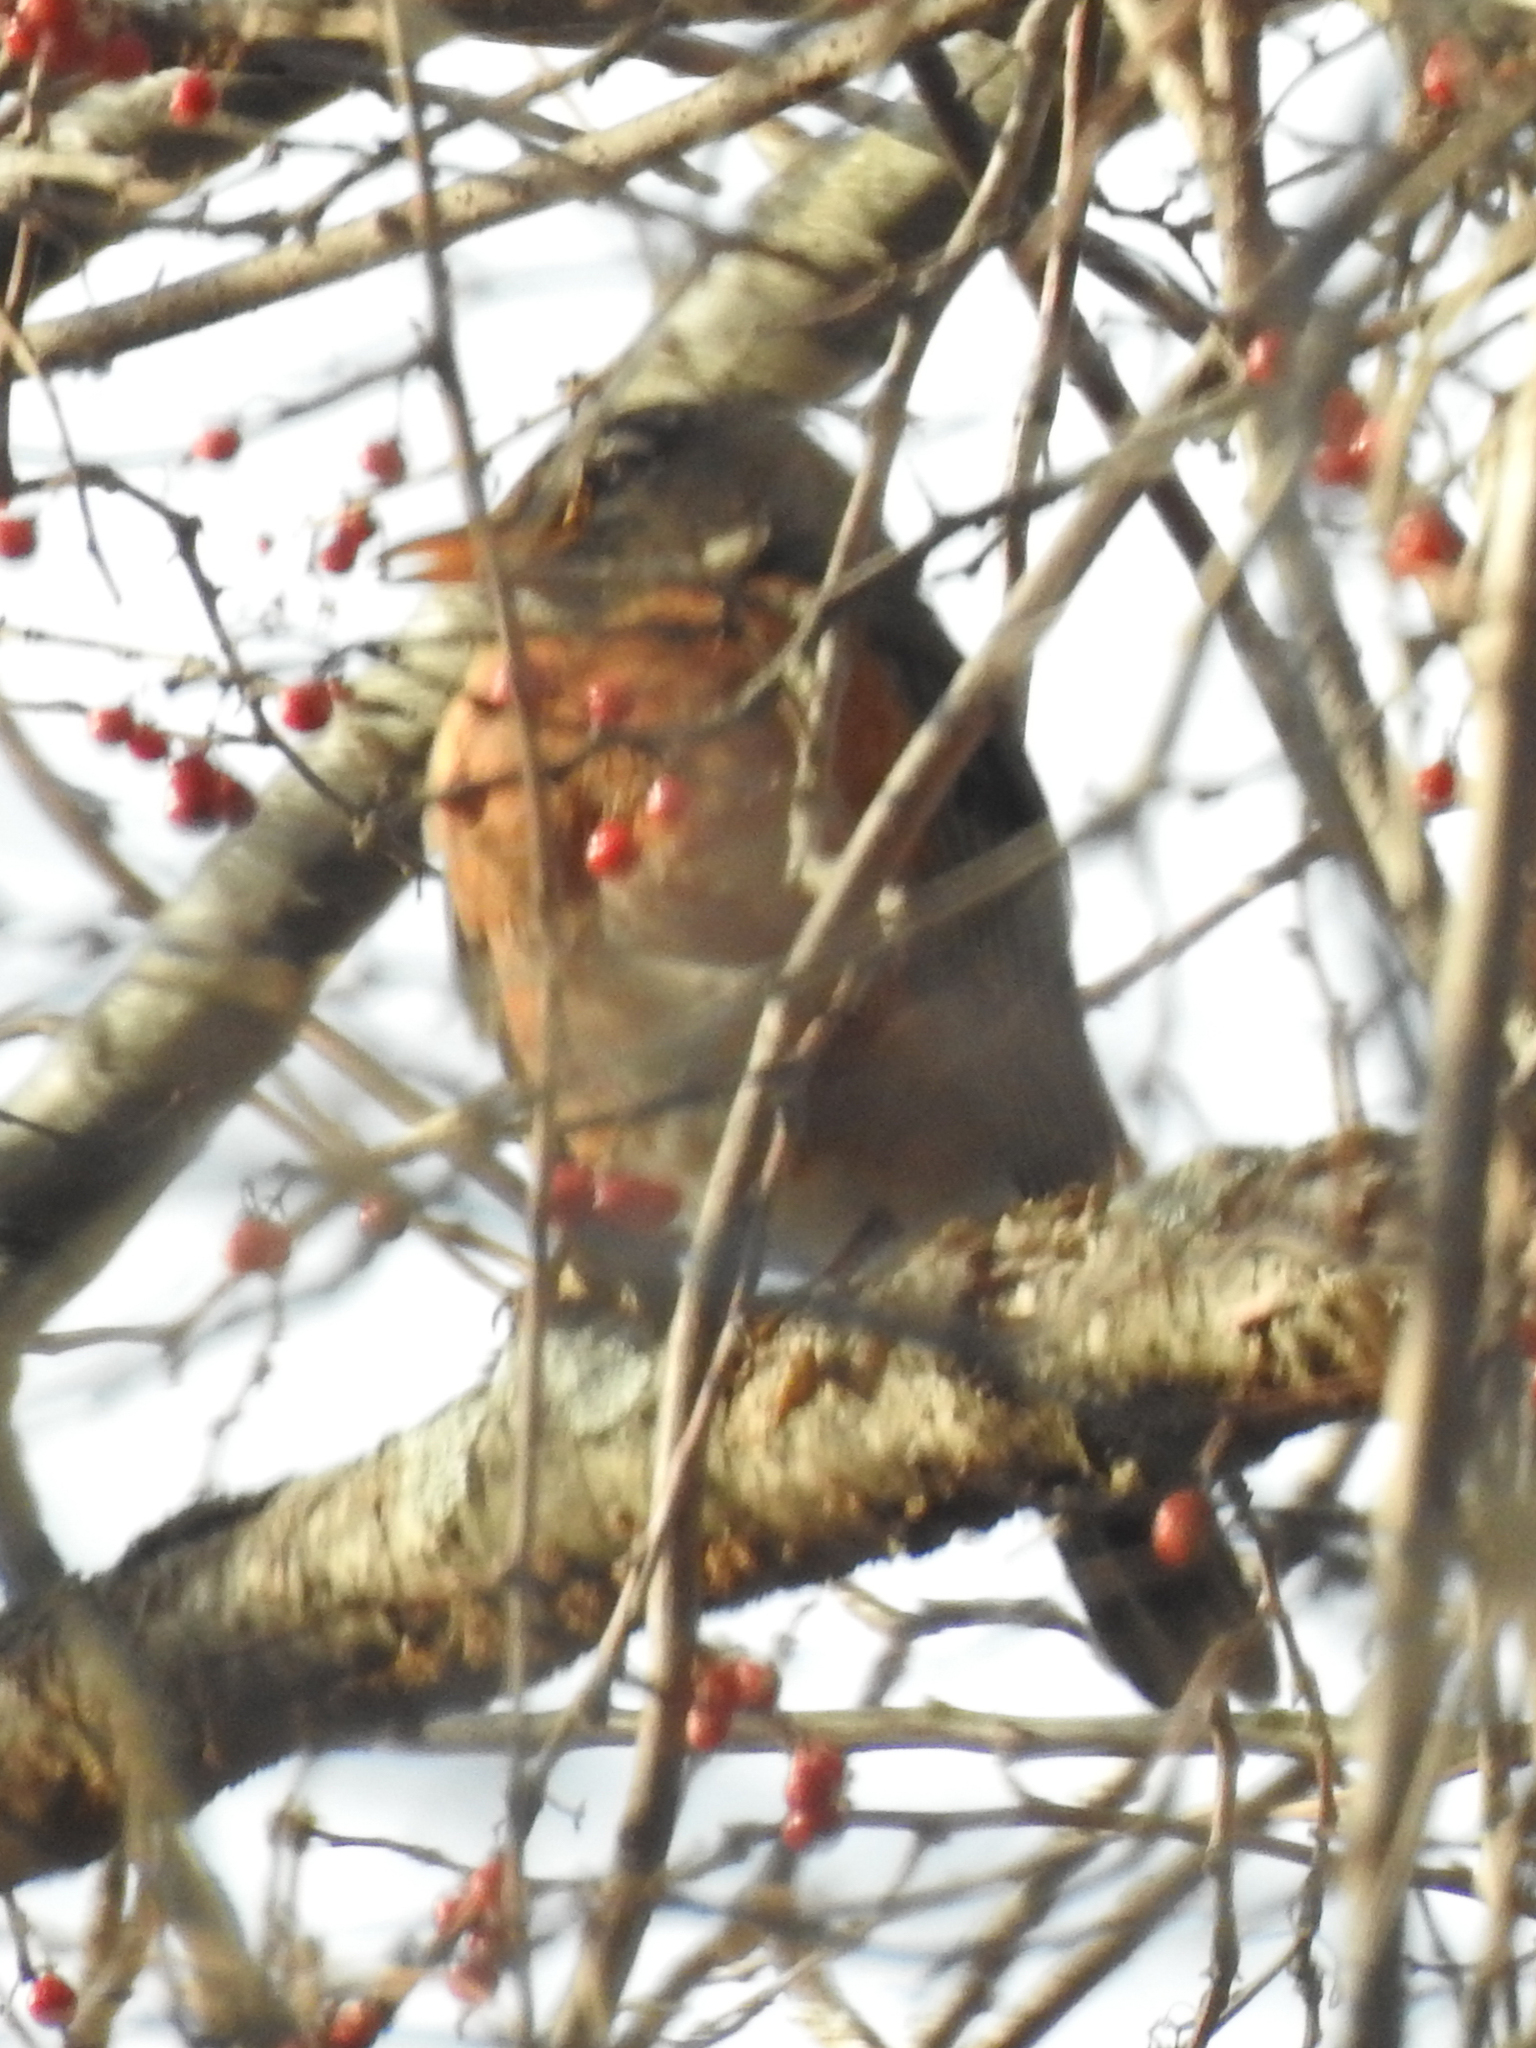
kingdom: Animalia
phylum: Chordata
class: Aves
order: Passeriformes
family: Turdidae
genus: Turdus
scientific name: Turdus migratorius
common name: American robin
